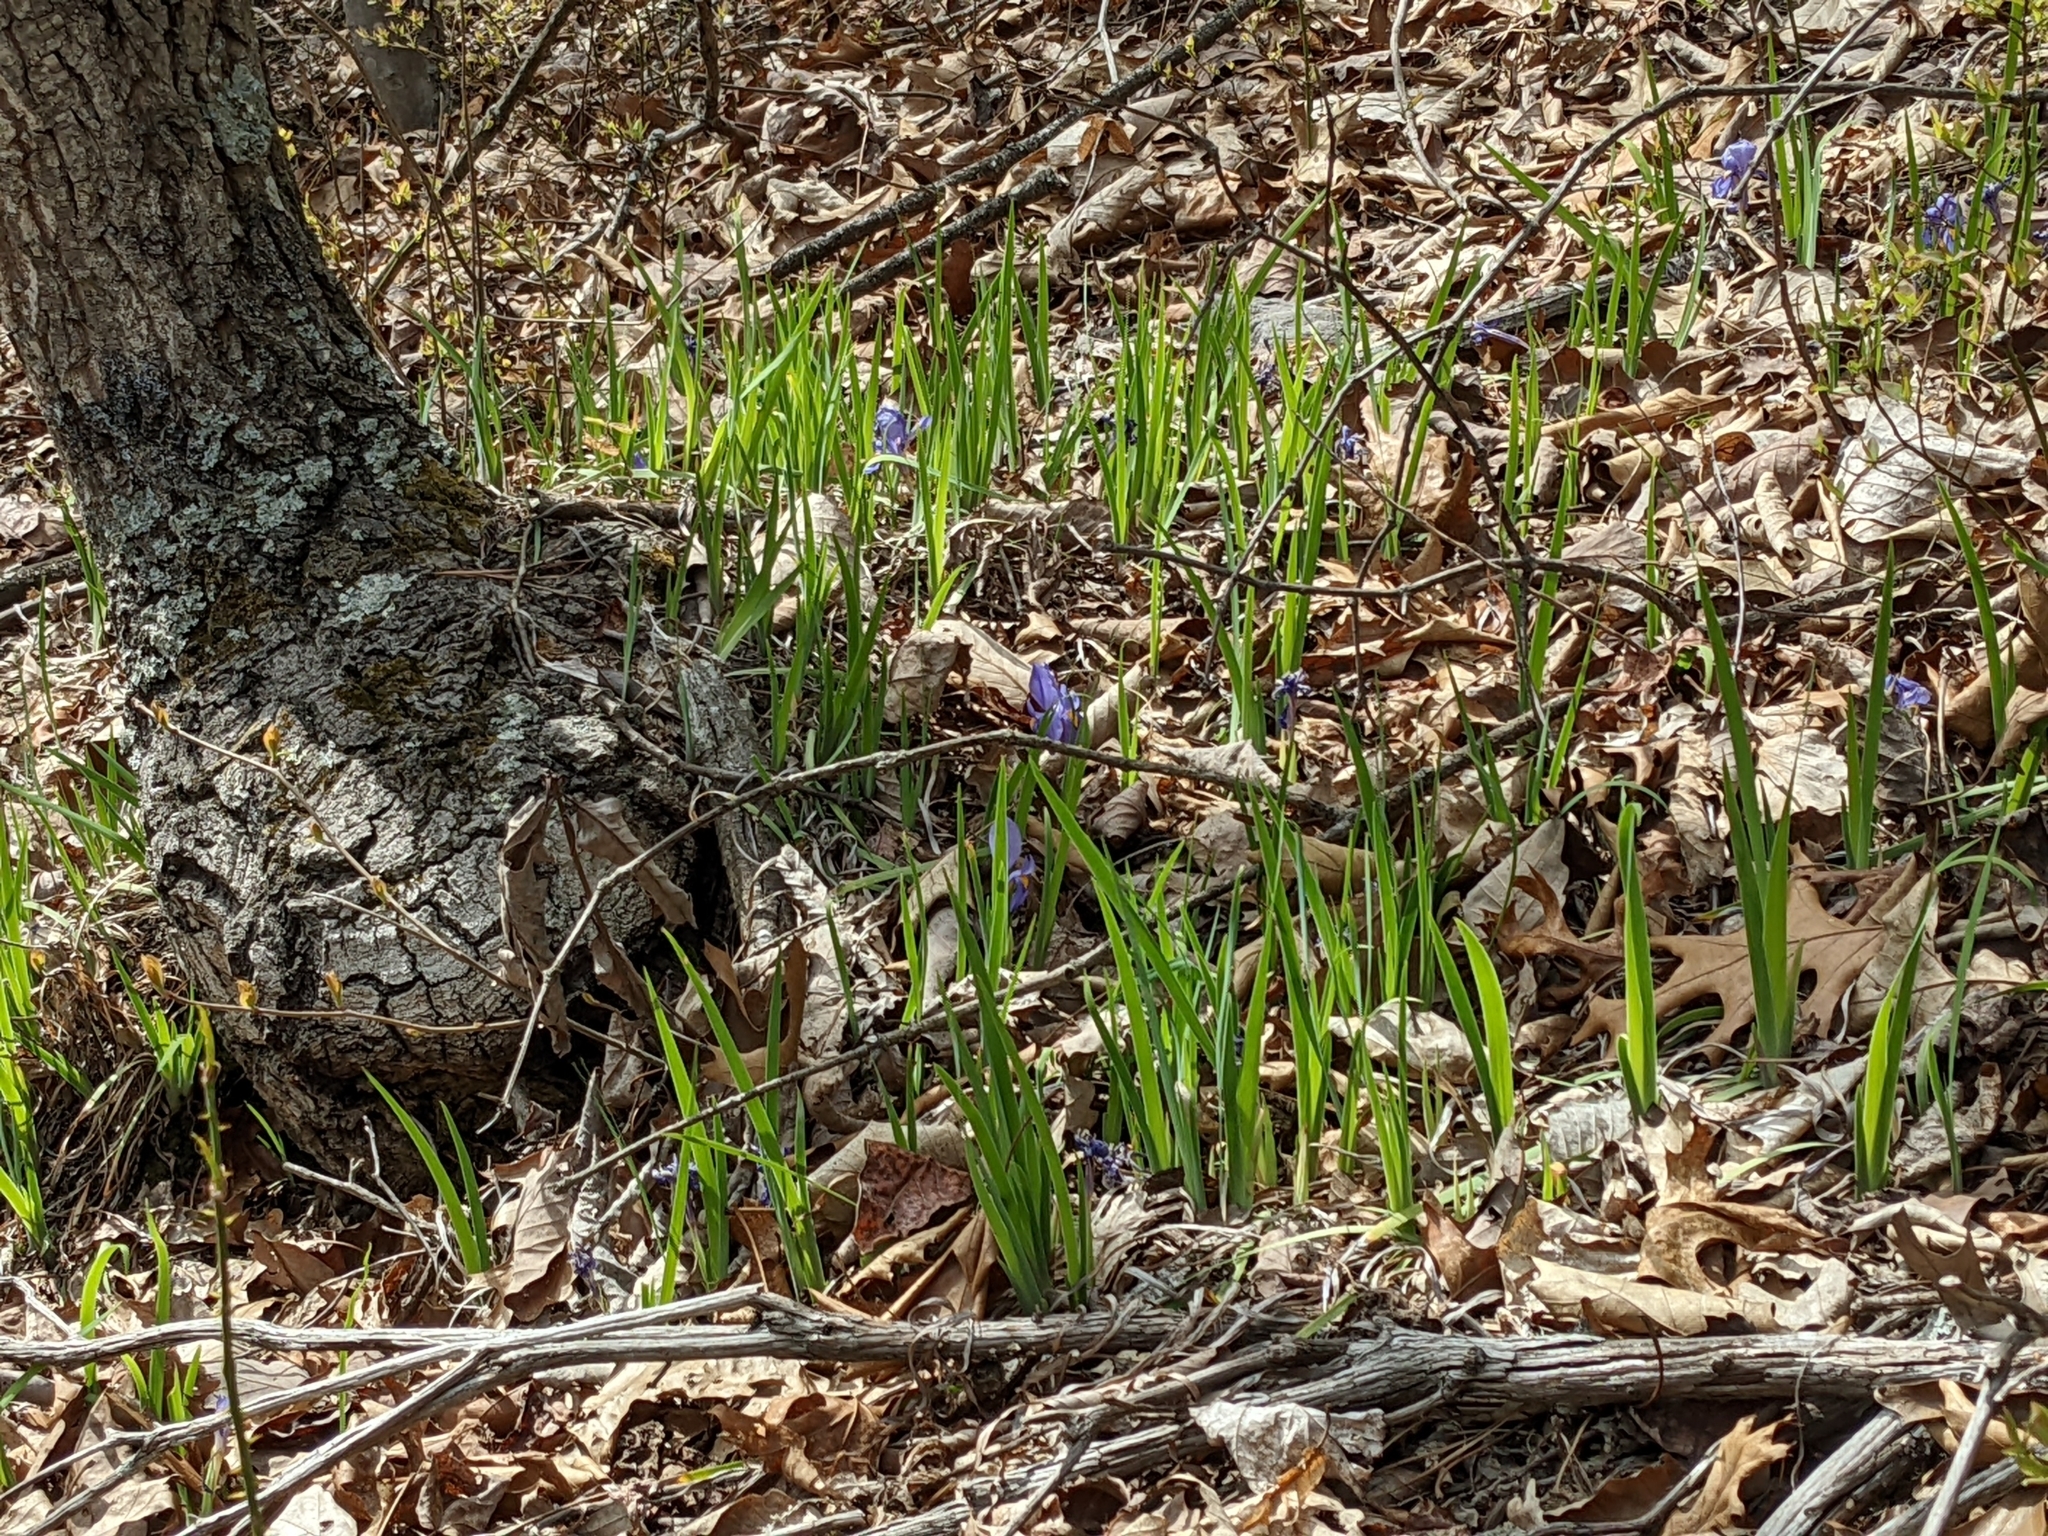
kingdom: Plantae
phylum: Tracheophyta
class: Liliopsida
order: Asparagales
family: Iridaceae
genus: Iris
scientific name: Iris verna
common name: Dwarf iris
